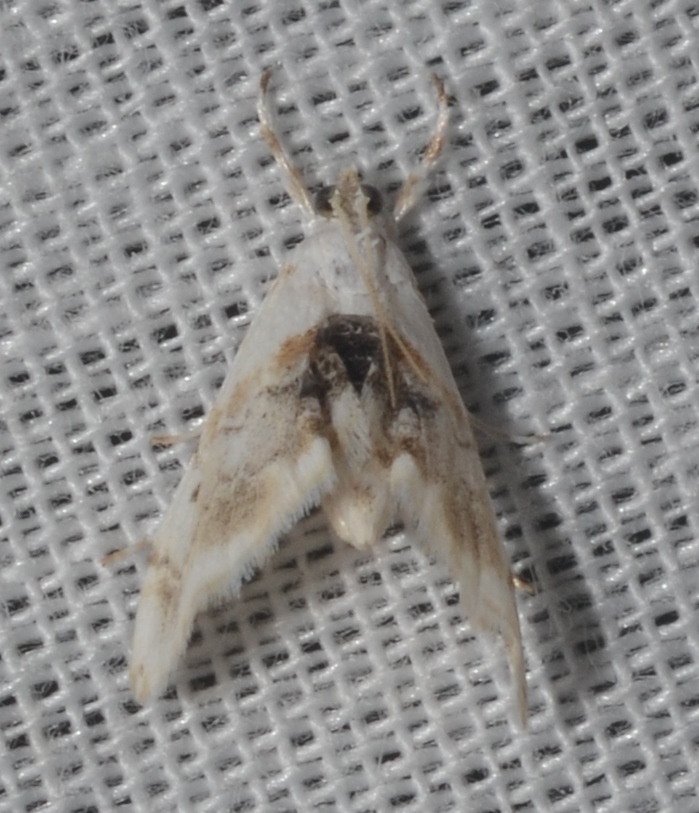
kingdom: Animalia
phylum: Arthropoda
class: Insecta
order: Lepidoptera
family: Crambidae
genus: Lipocosma
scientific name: Lipocosma adelalis
